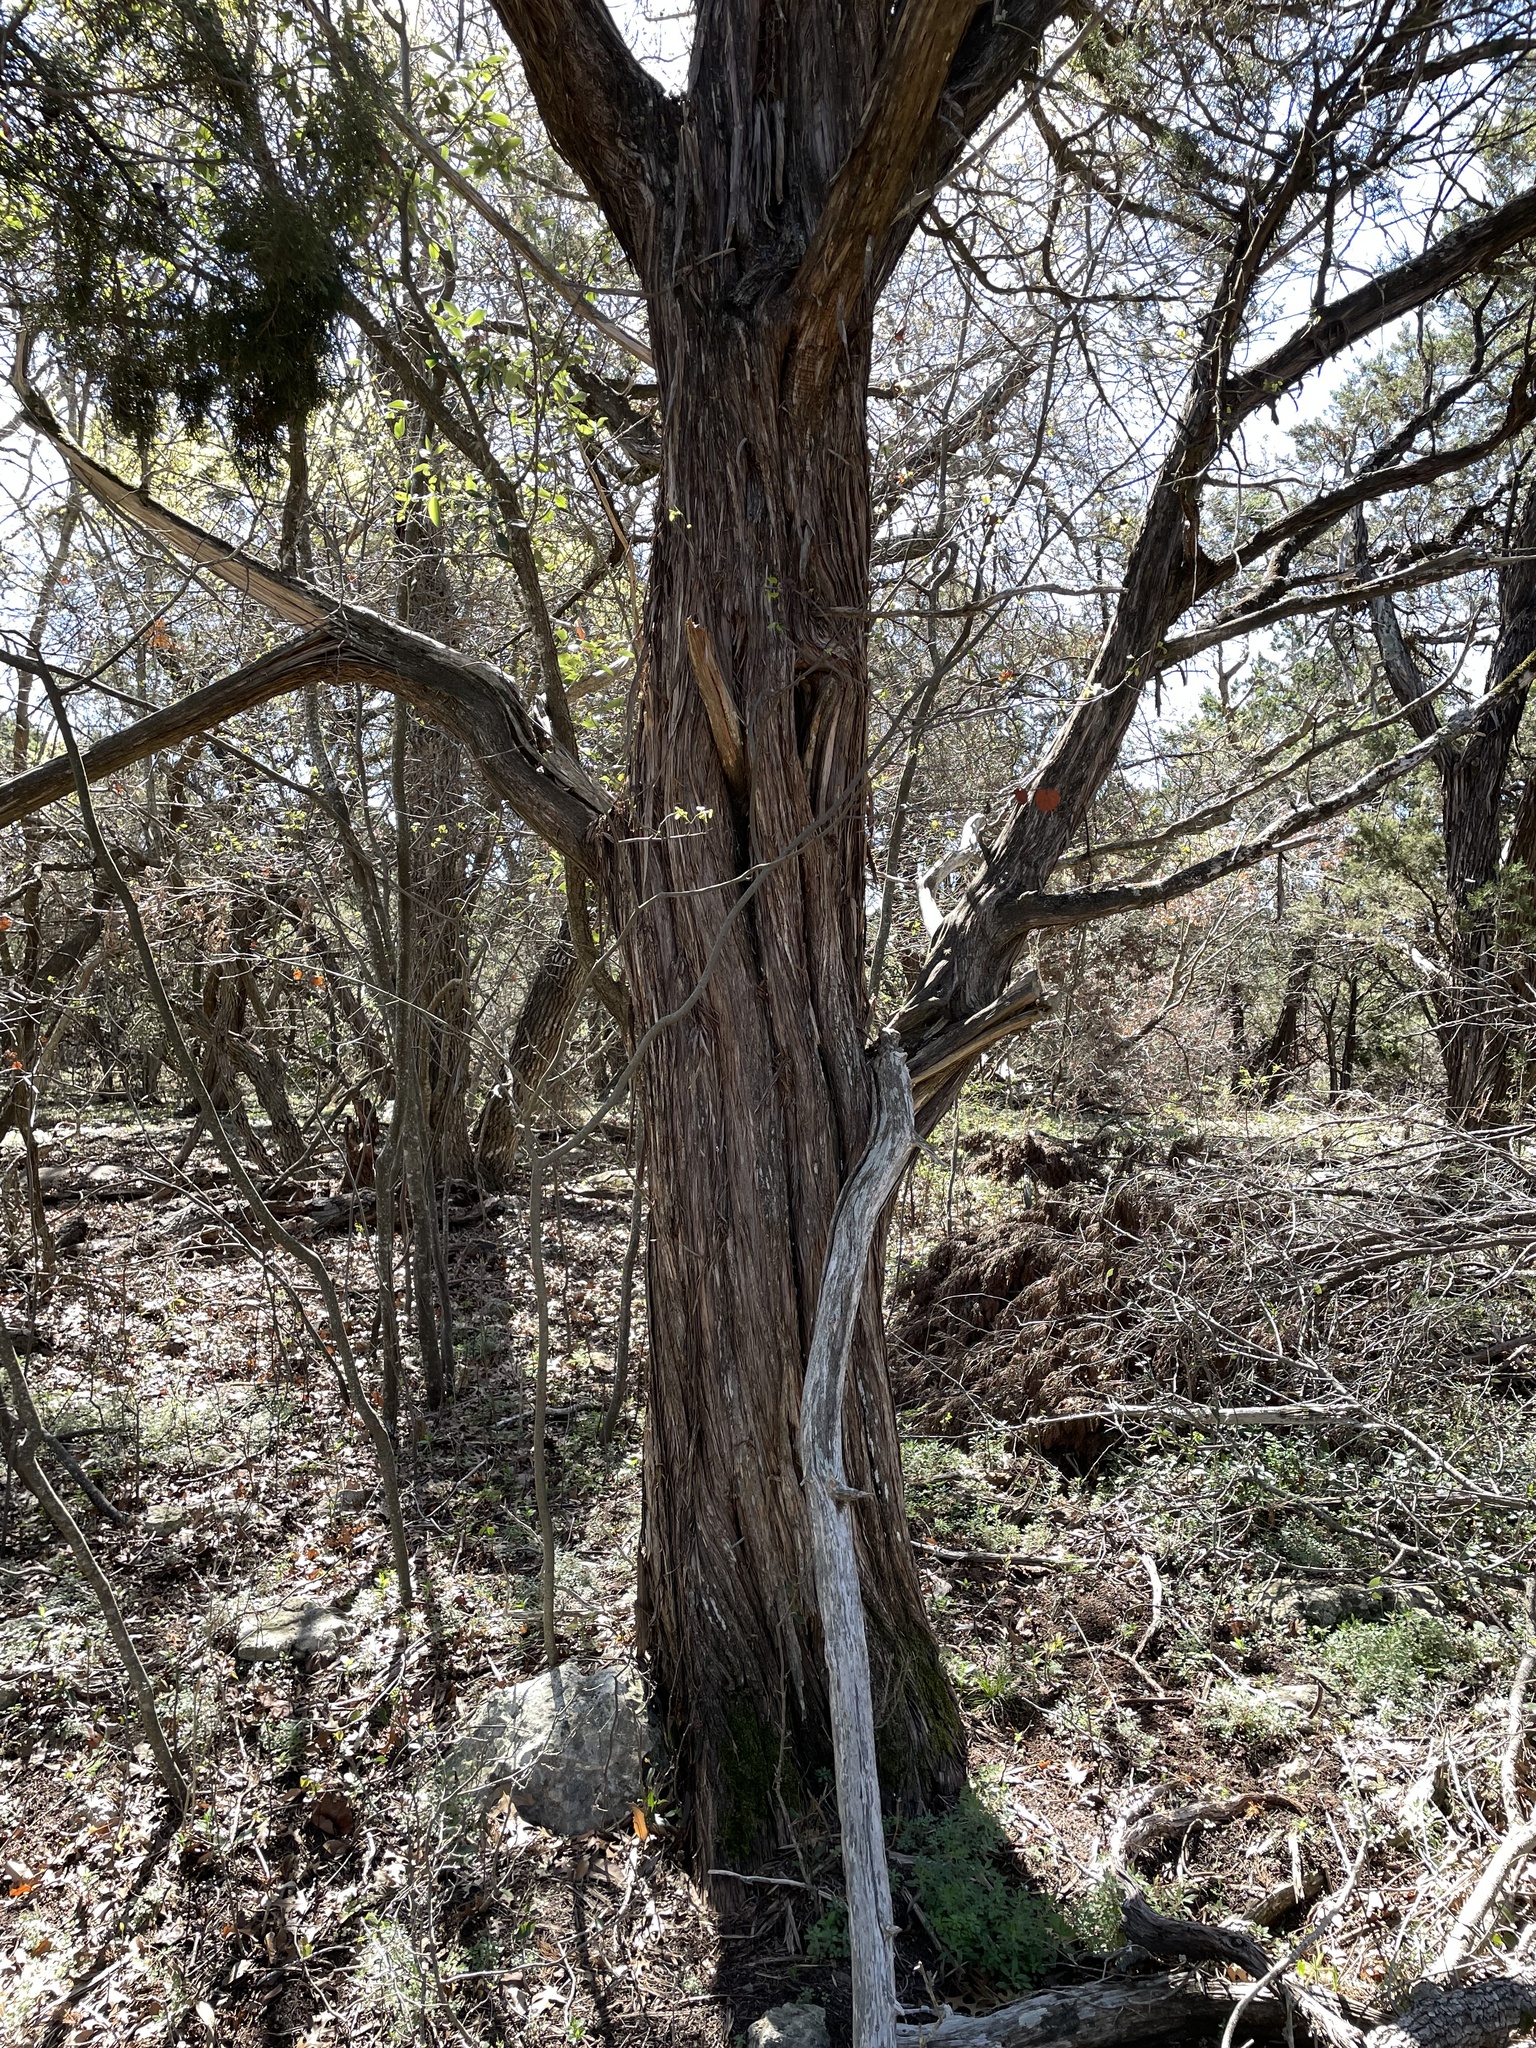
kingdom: Plantae
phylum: Tracheophyta
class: Pinopsida
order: Pinales
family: Cupressaceae
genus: Juniperus
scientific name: Juniperus ashei
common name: Mexican juniper
